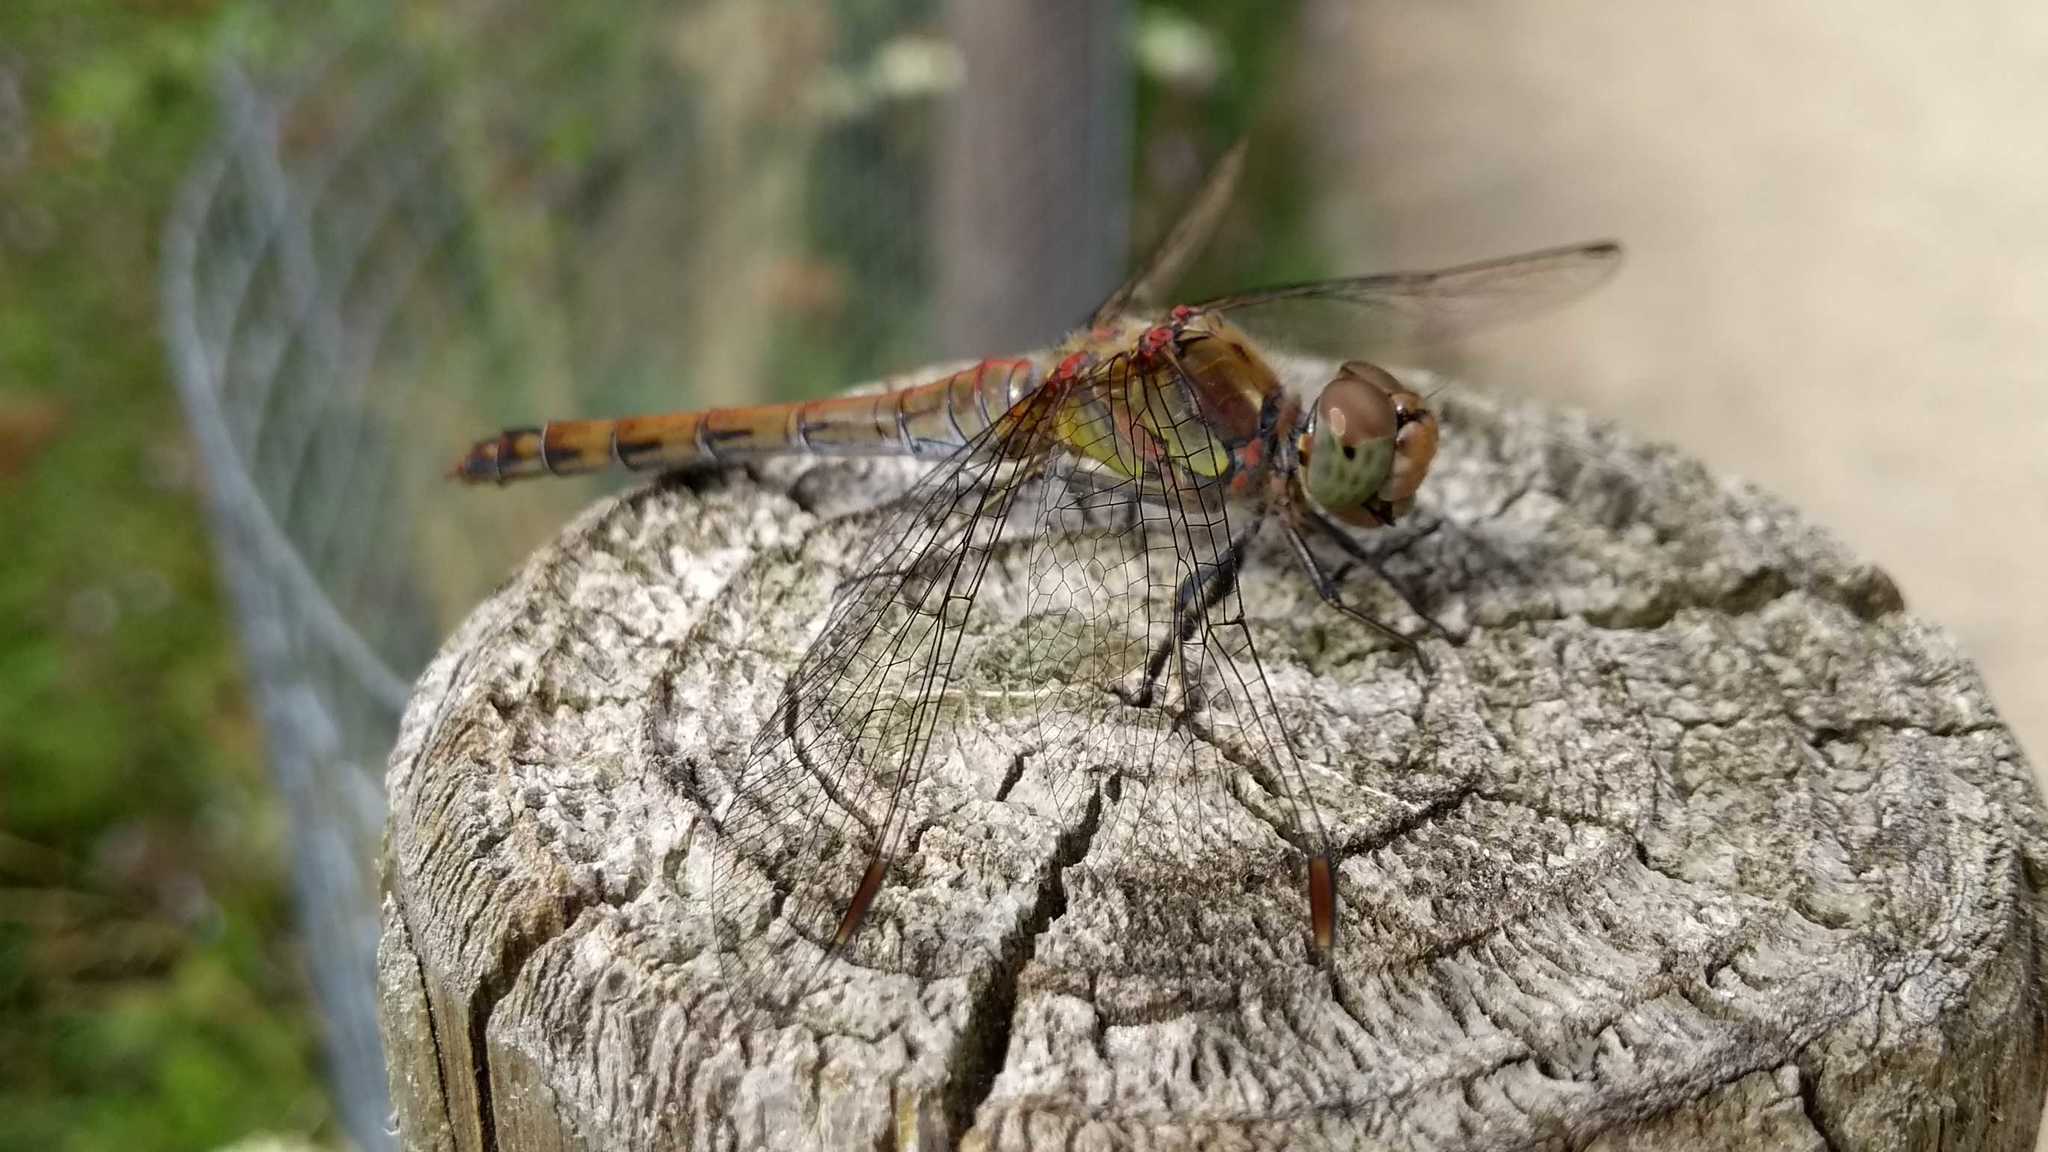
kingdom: Animalia
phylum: Arthropoda
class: Insecta
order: Odonata
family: Libellulidae
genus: Sympetrum
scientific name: Sympetrum striolatum
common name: Common darter
